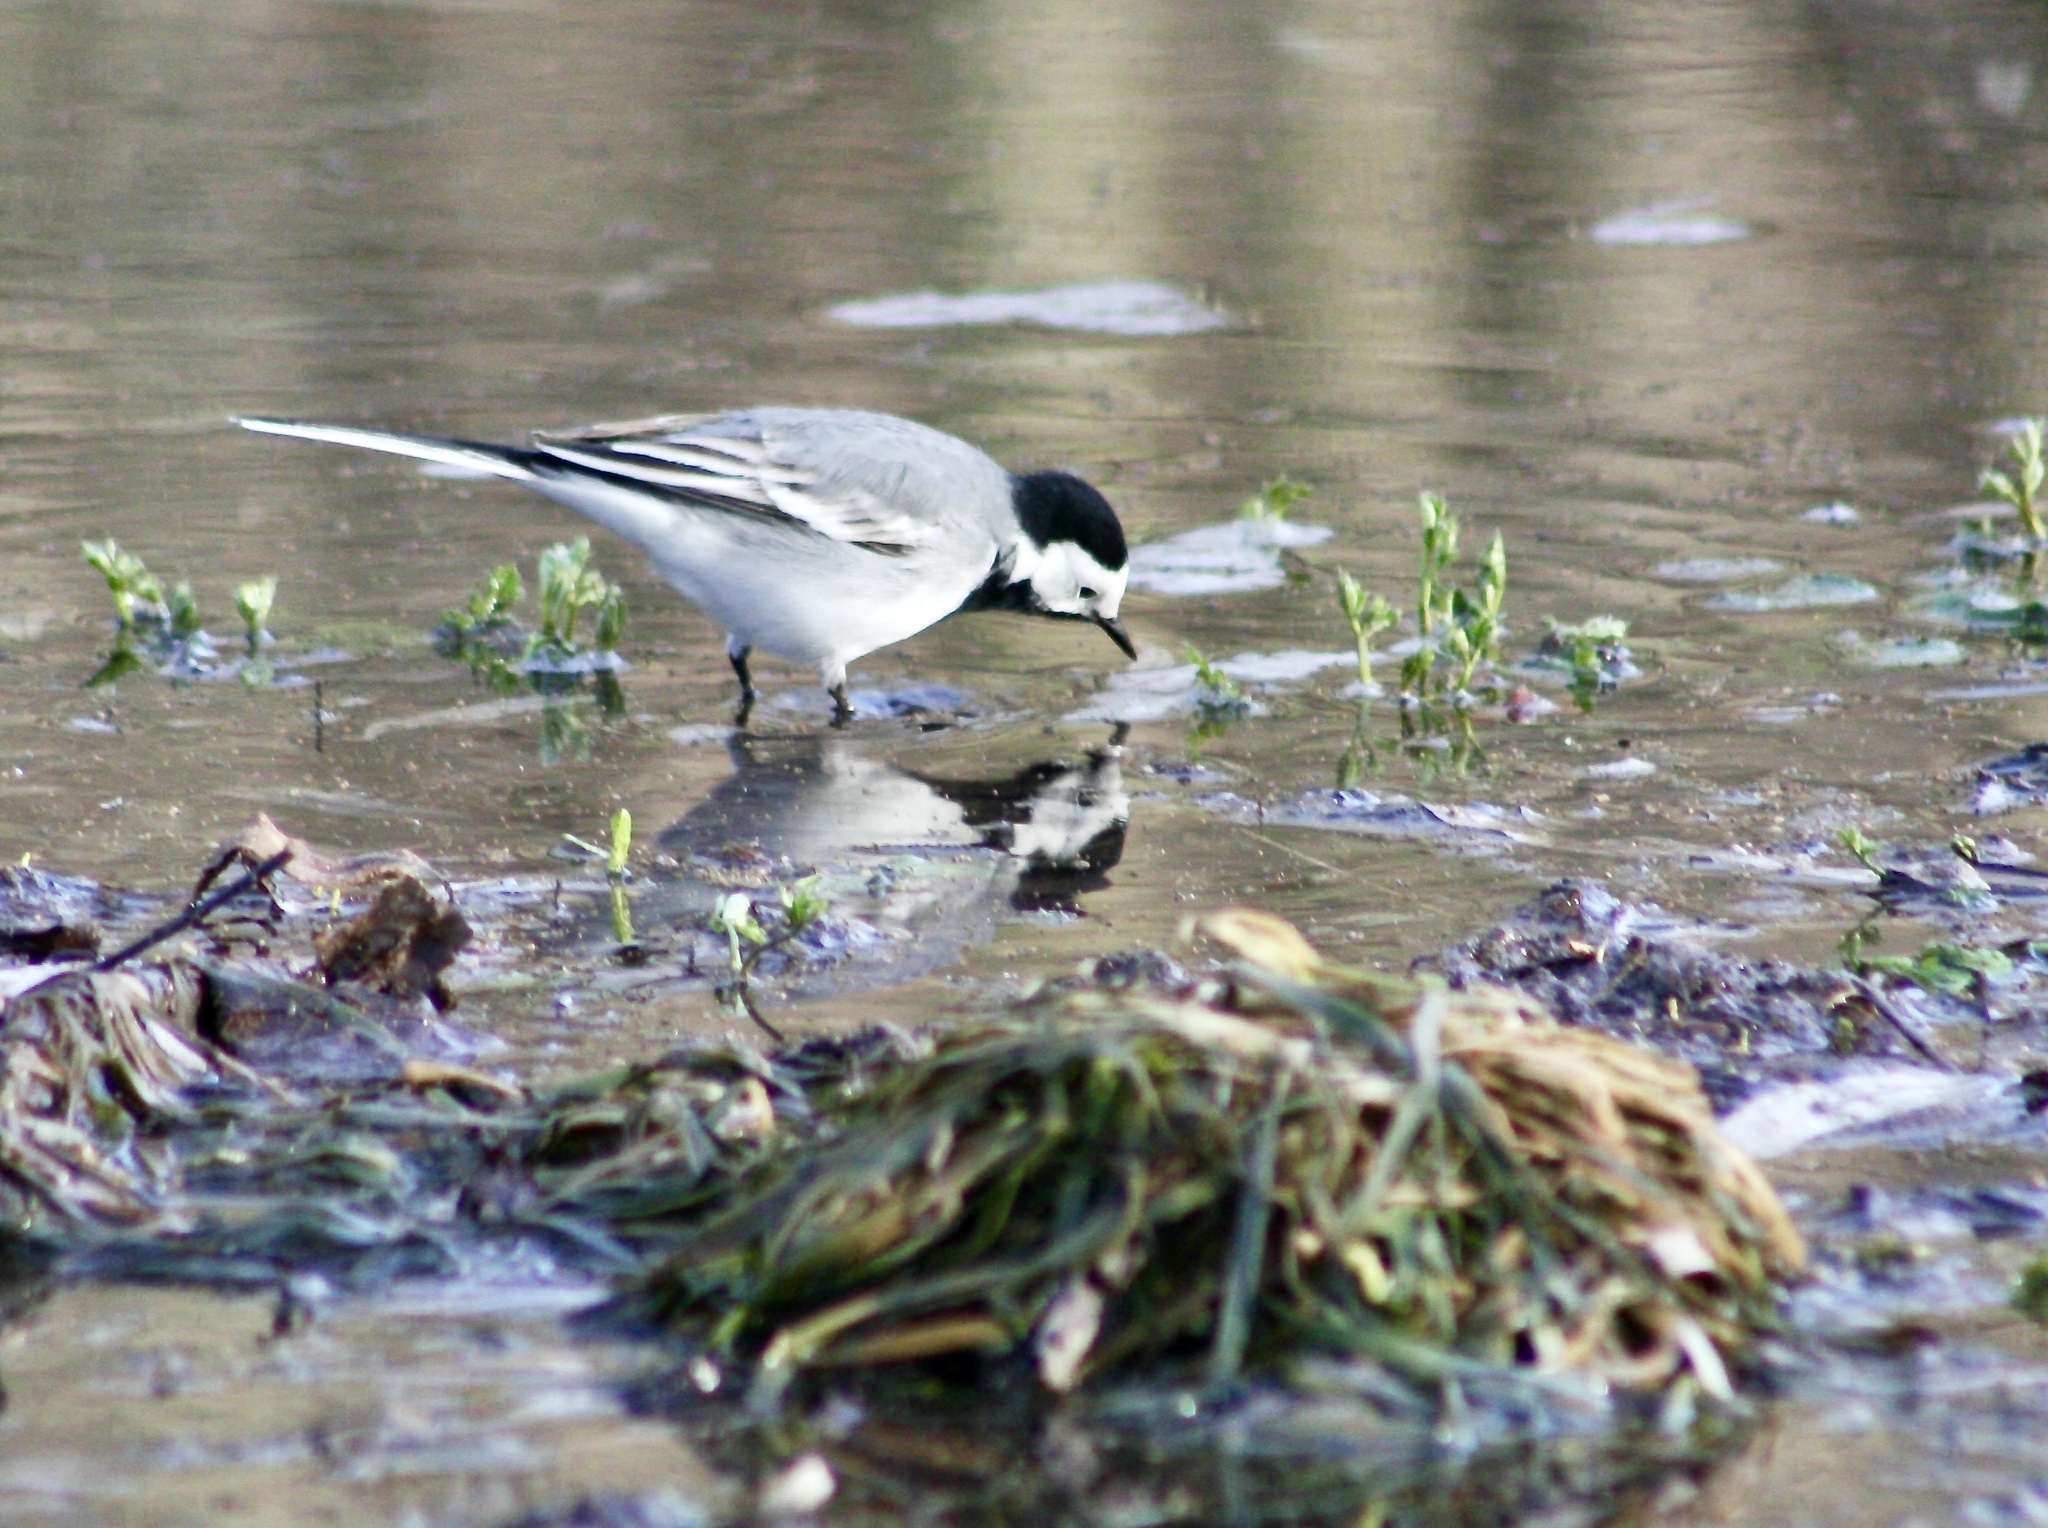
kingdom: Animalia
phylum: Chordata
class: Aves
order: Passeriformes
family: Motacillidae
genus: Motacilla
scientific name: Motacilla alba
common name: White wagtail
